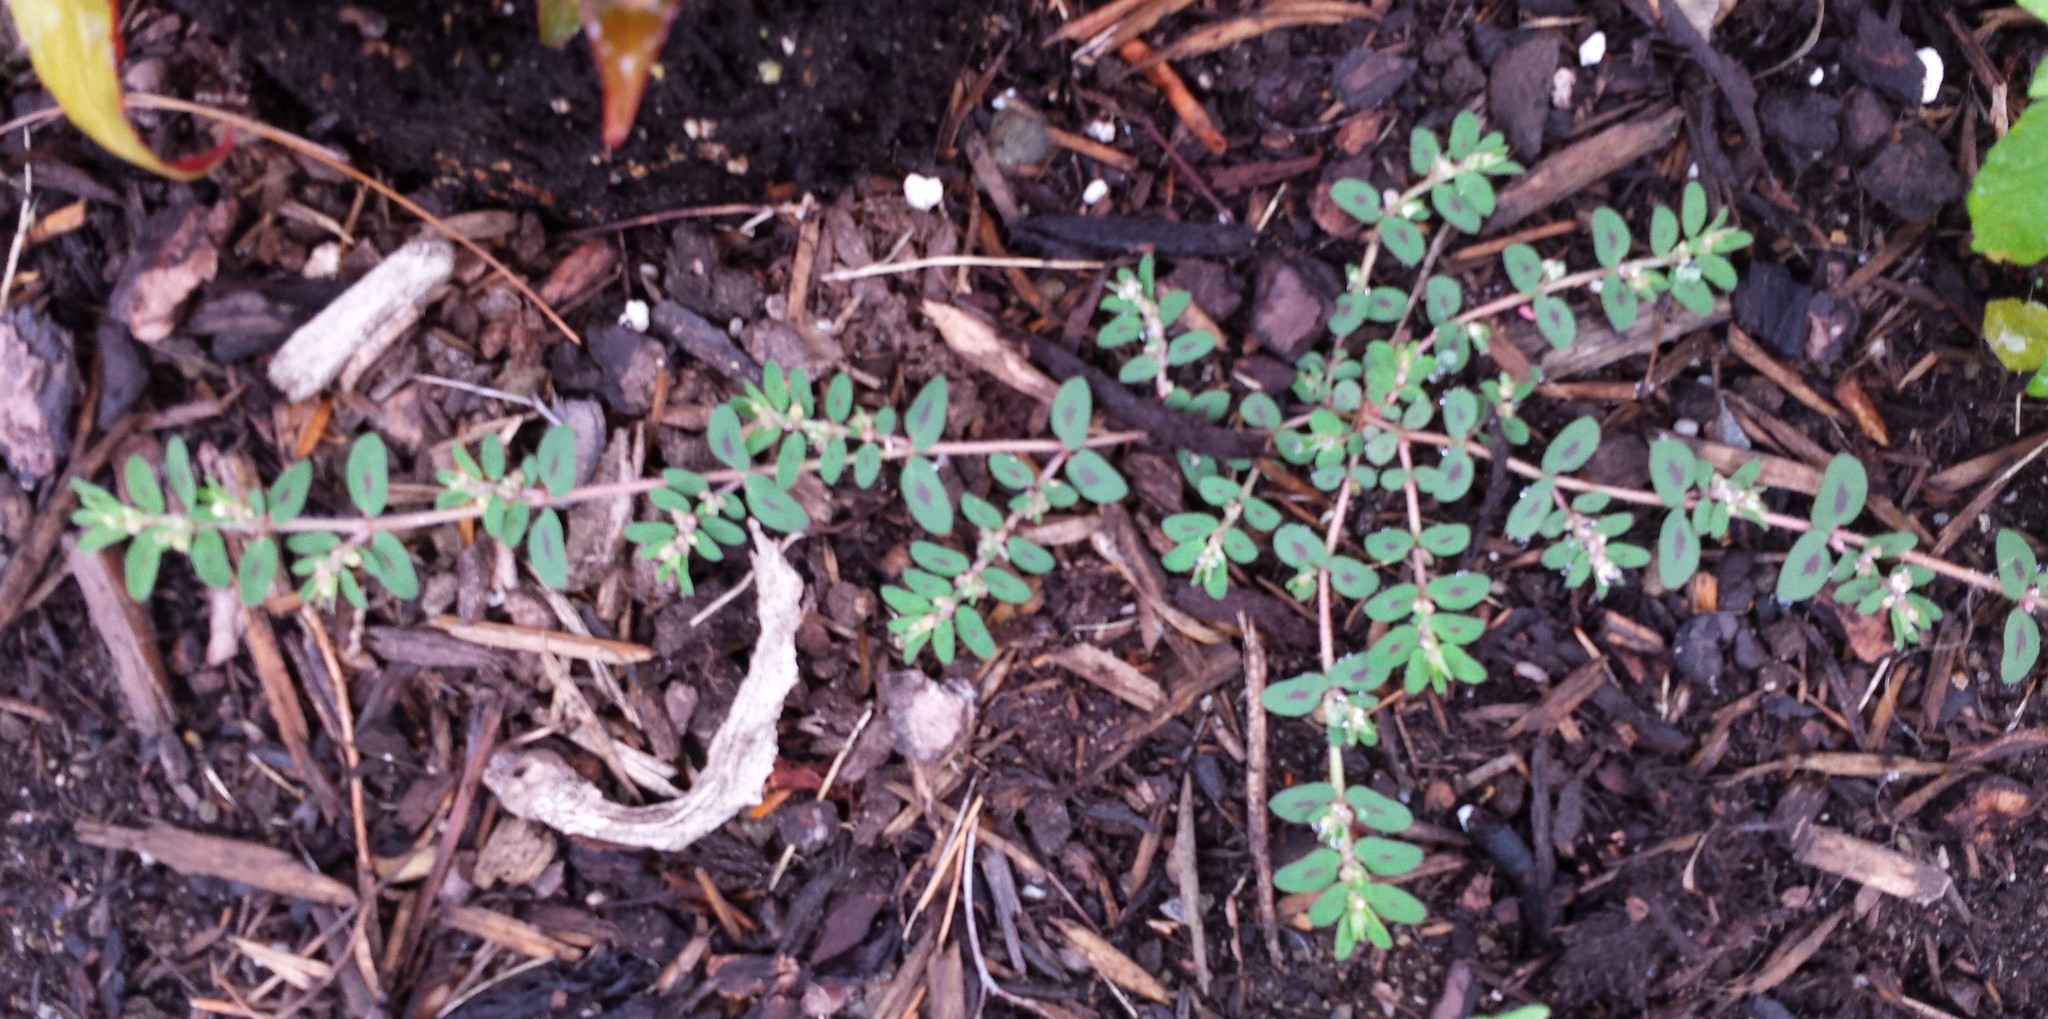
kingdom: Plantae
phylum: Tracheophyta
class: Magnoliopsida
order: Malpighiales
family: Euphorbiaceae
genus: Euphorbia
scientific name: Euphorbia maculata
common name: Spotted spurge
